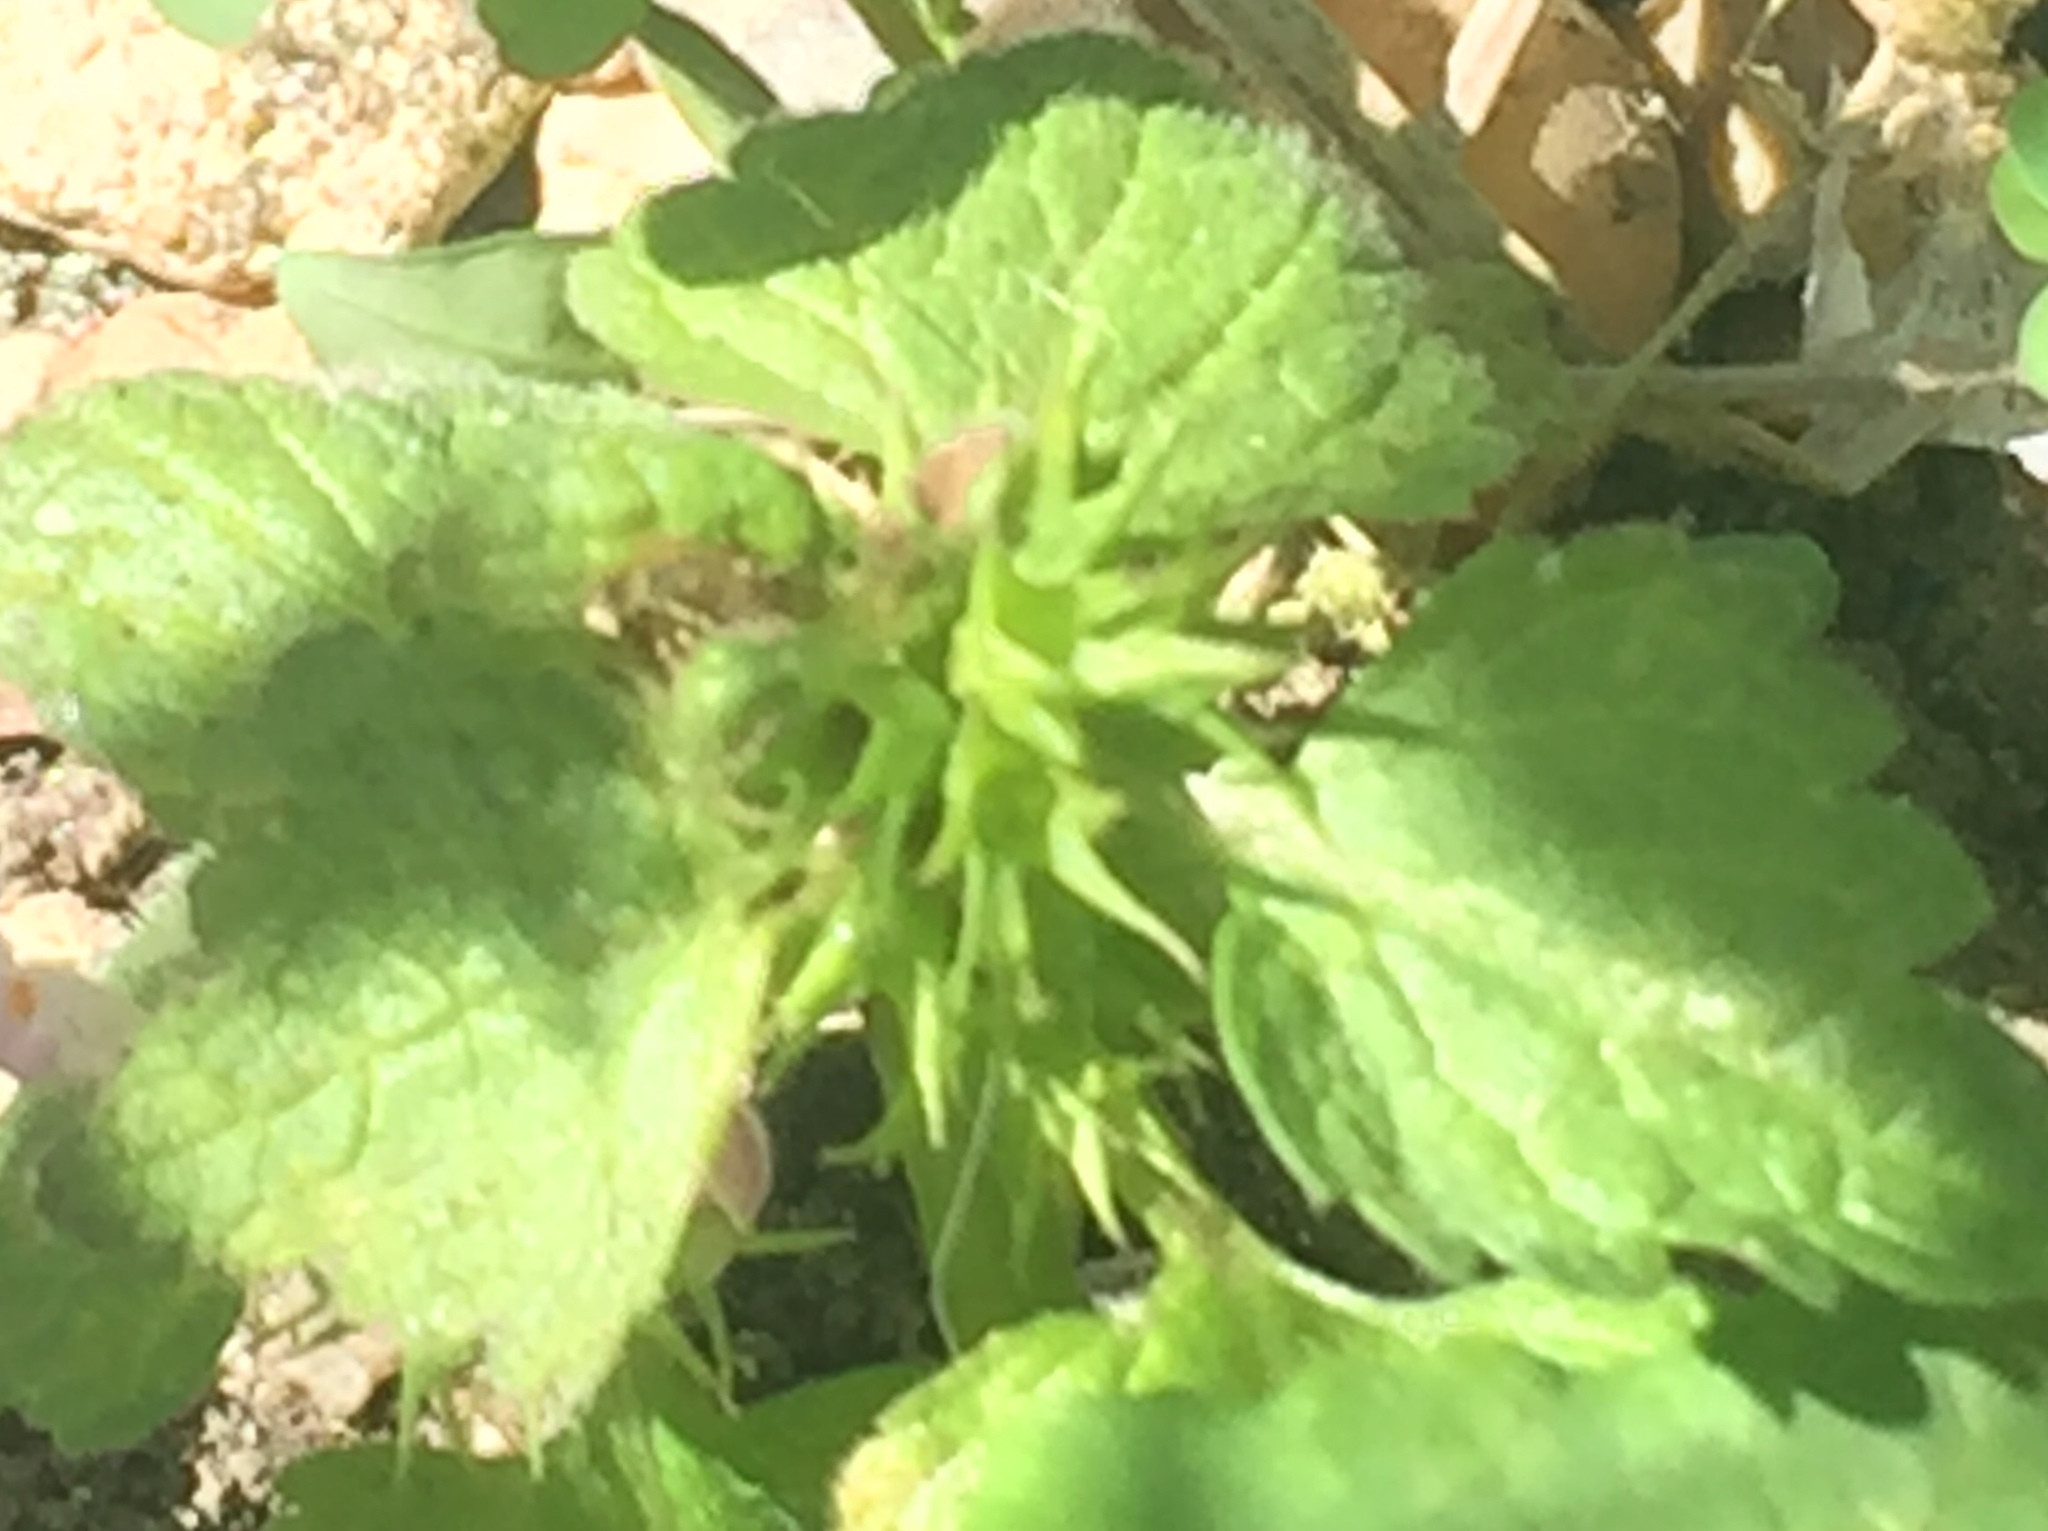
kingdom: Plantae
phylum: Tracheophyta
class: Magnoliopsida
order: Lamiales
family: Lamiaceae
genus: Ballota
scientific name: Ballota nigra
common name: Black horehound
